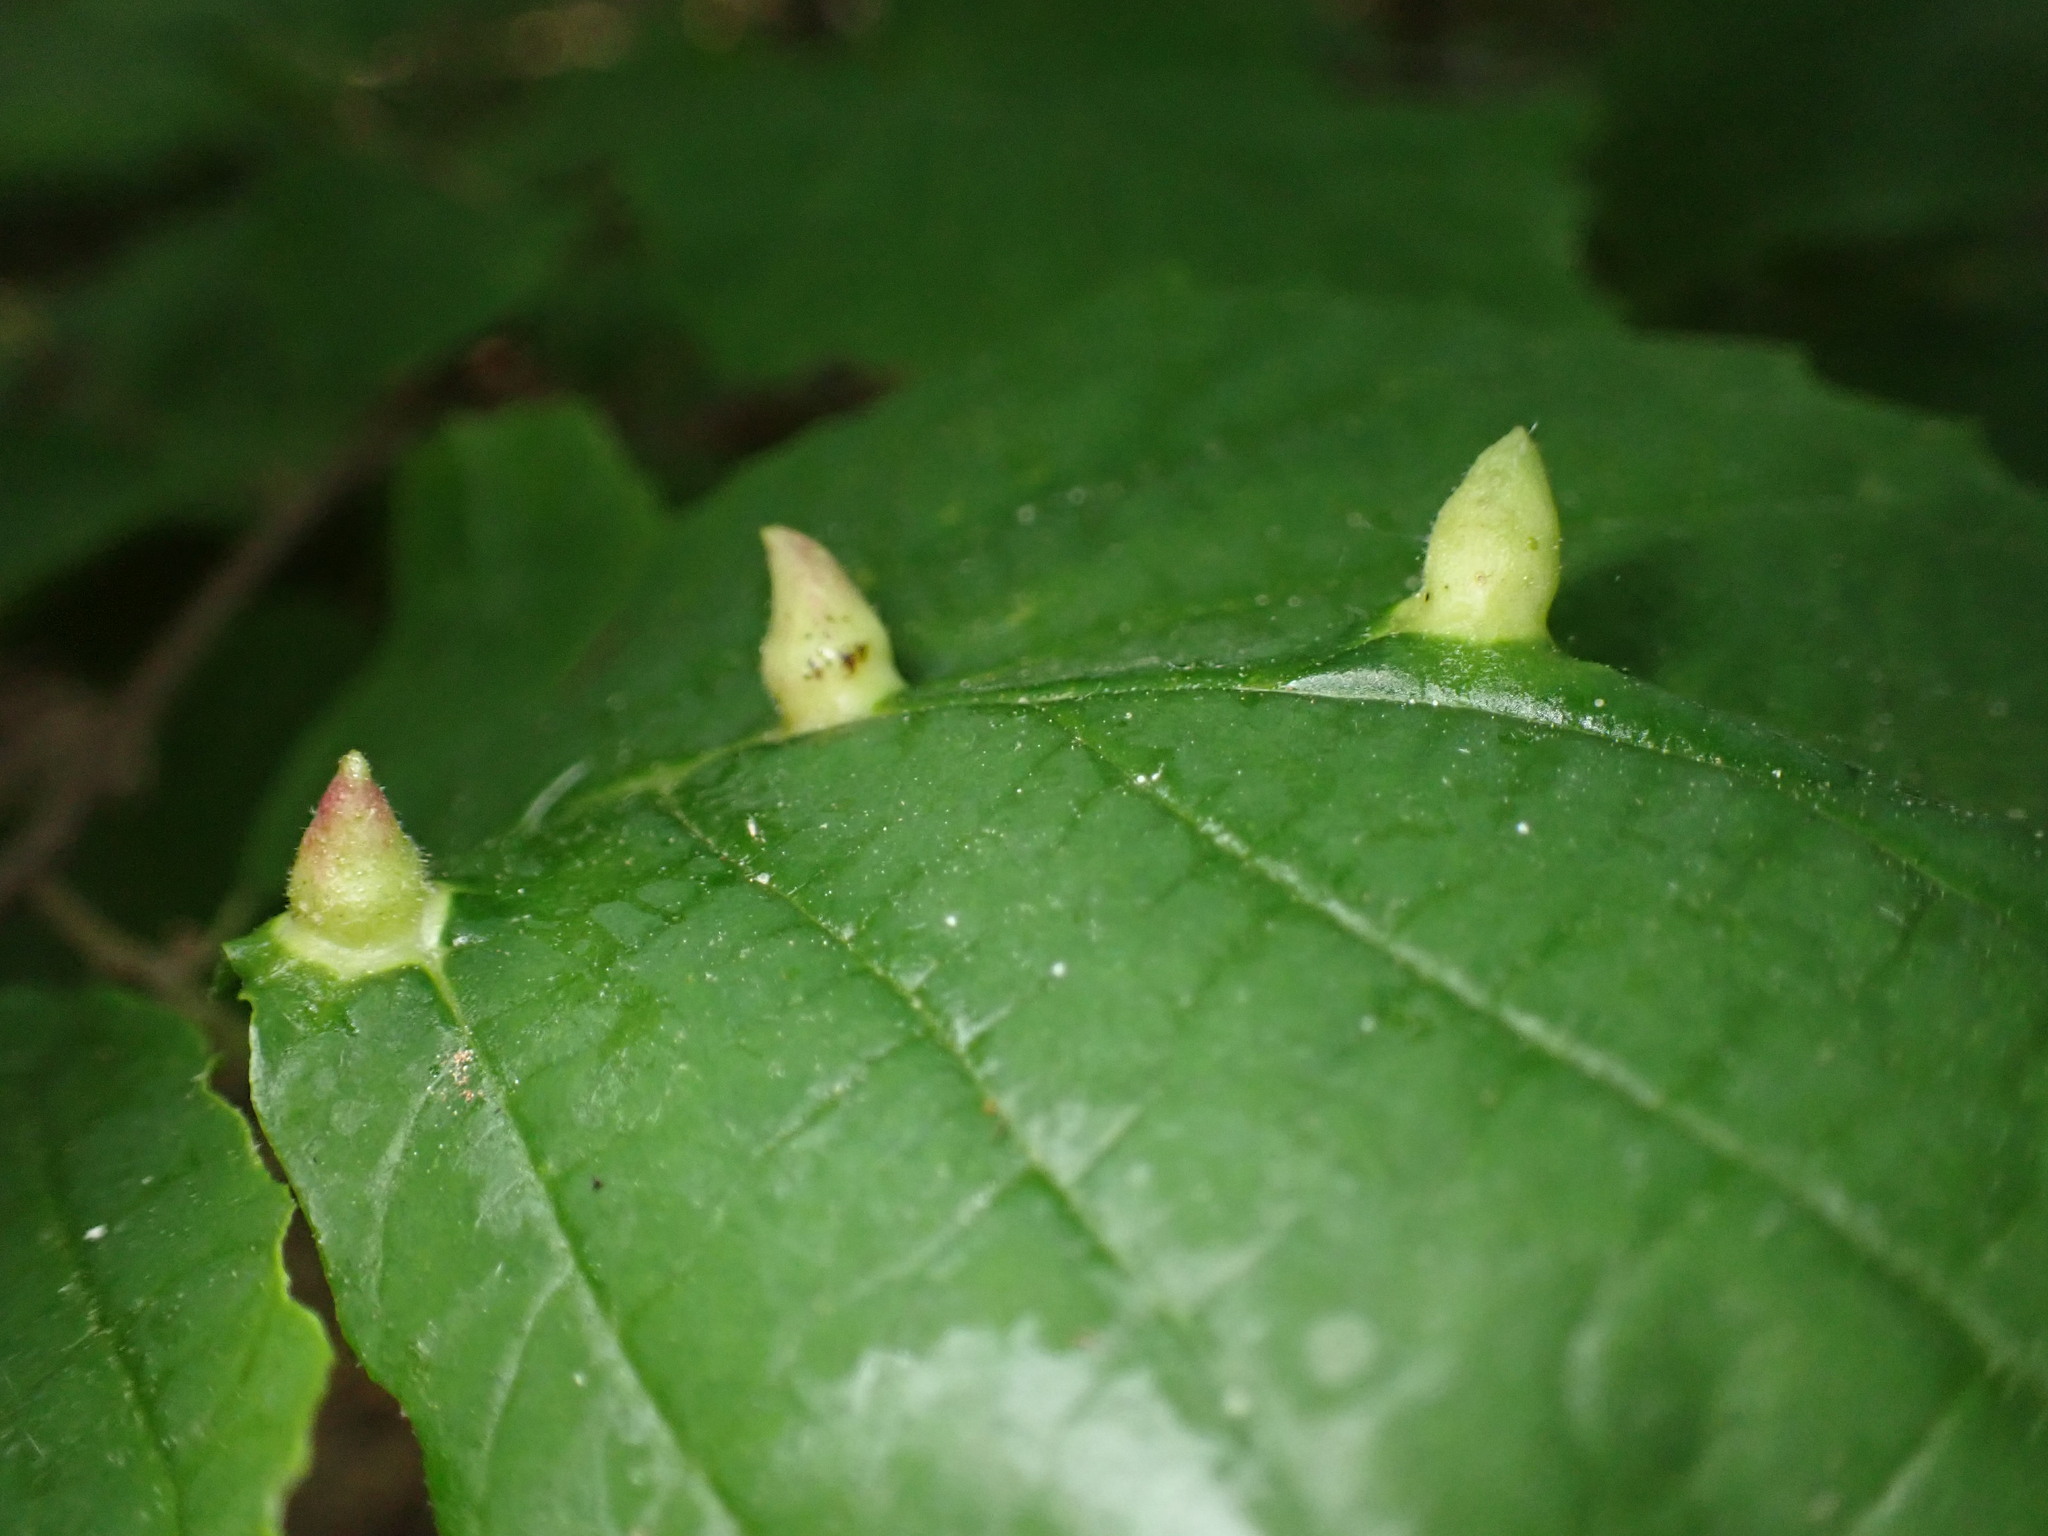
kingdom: Animalia
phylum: Arthropoda
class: Insecta
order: Hemiptera
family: Aphididae
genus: Hormaphis
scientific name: Hormaphis hamamelidis
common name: Witch-hazel cone gall aphid
